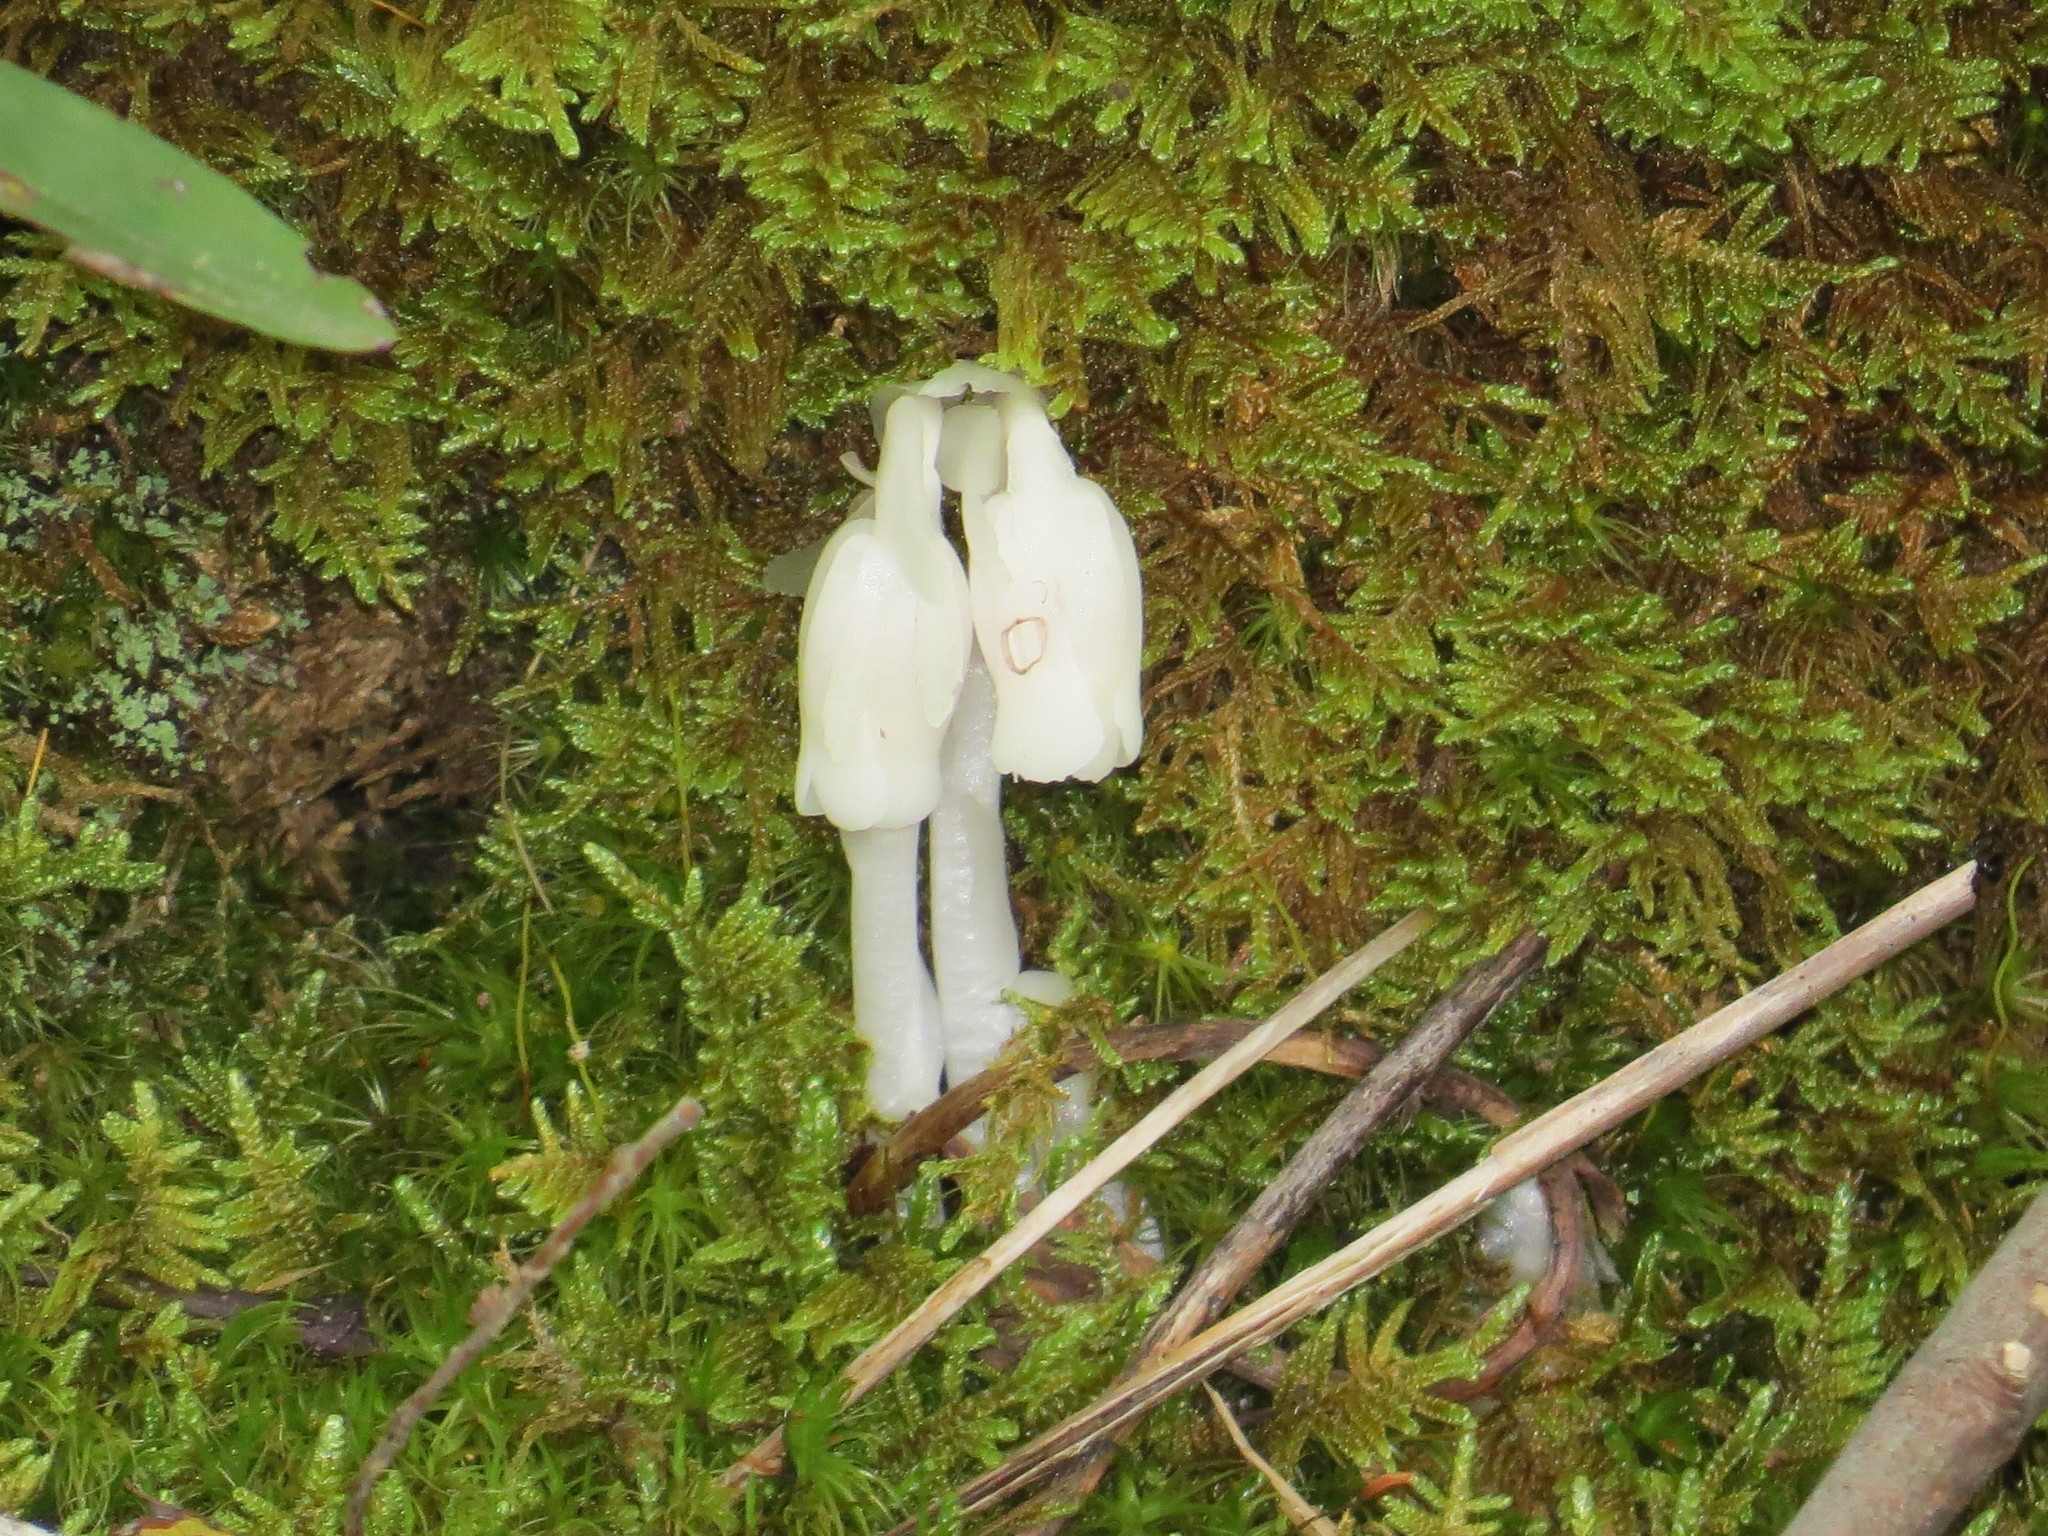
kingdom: Plantae
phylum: Tracheophyta
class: Magnoliopsida
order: Ericales
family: Ericaceae
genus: Monotropa
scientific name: Monotropa uniflora
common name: Convulsion root
